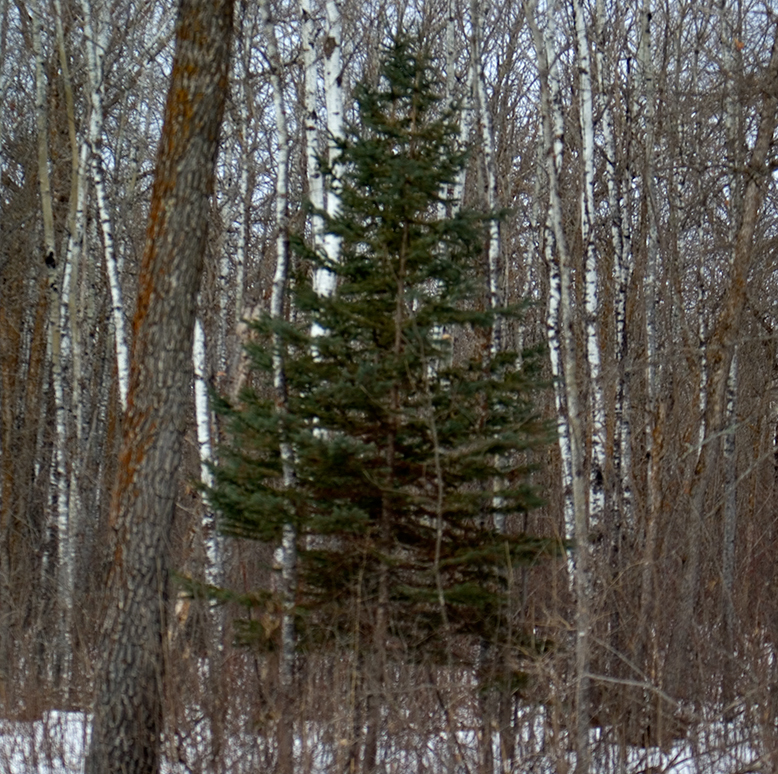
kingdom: Plantae
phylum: Tracheophyta
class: Pinopsida
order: Pinales
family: Pinaceae
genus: Picea
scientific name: Picea glauca
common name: White spruce
